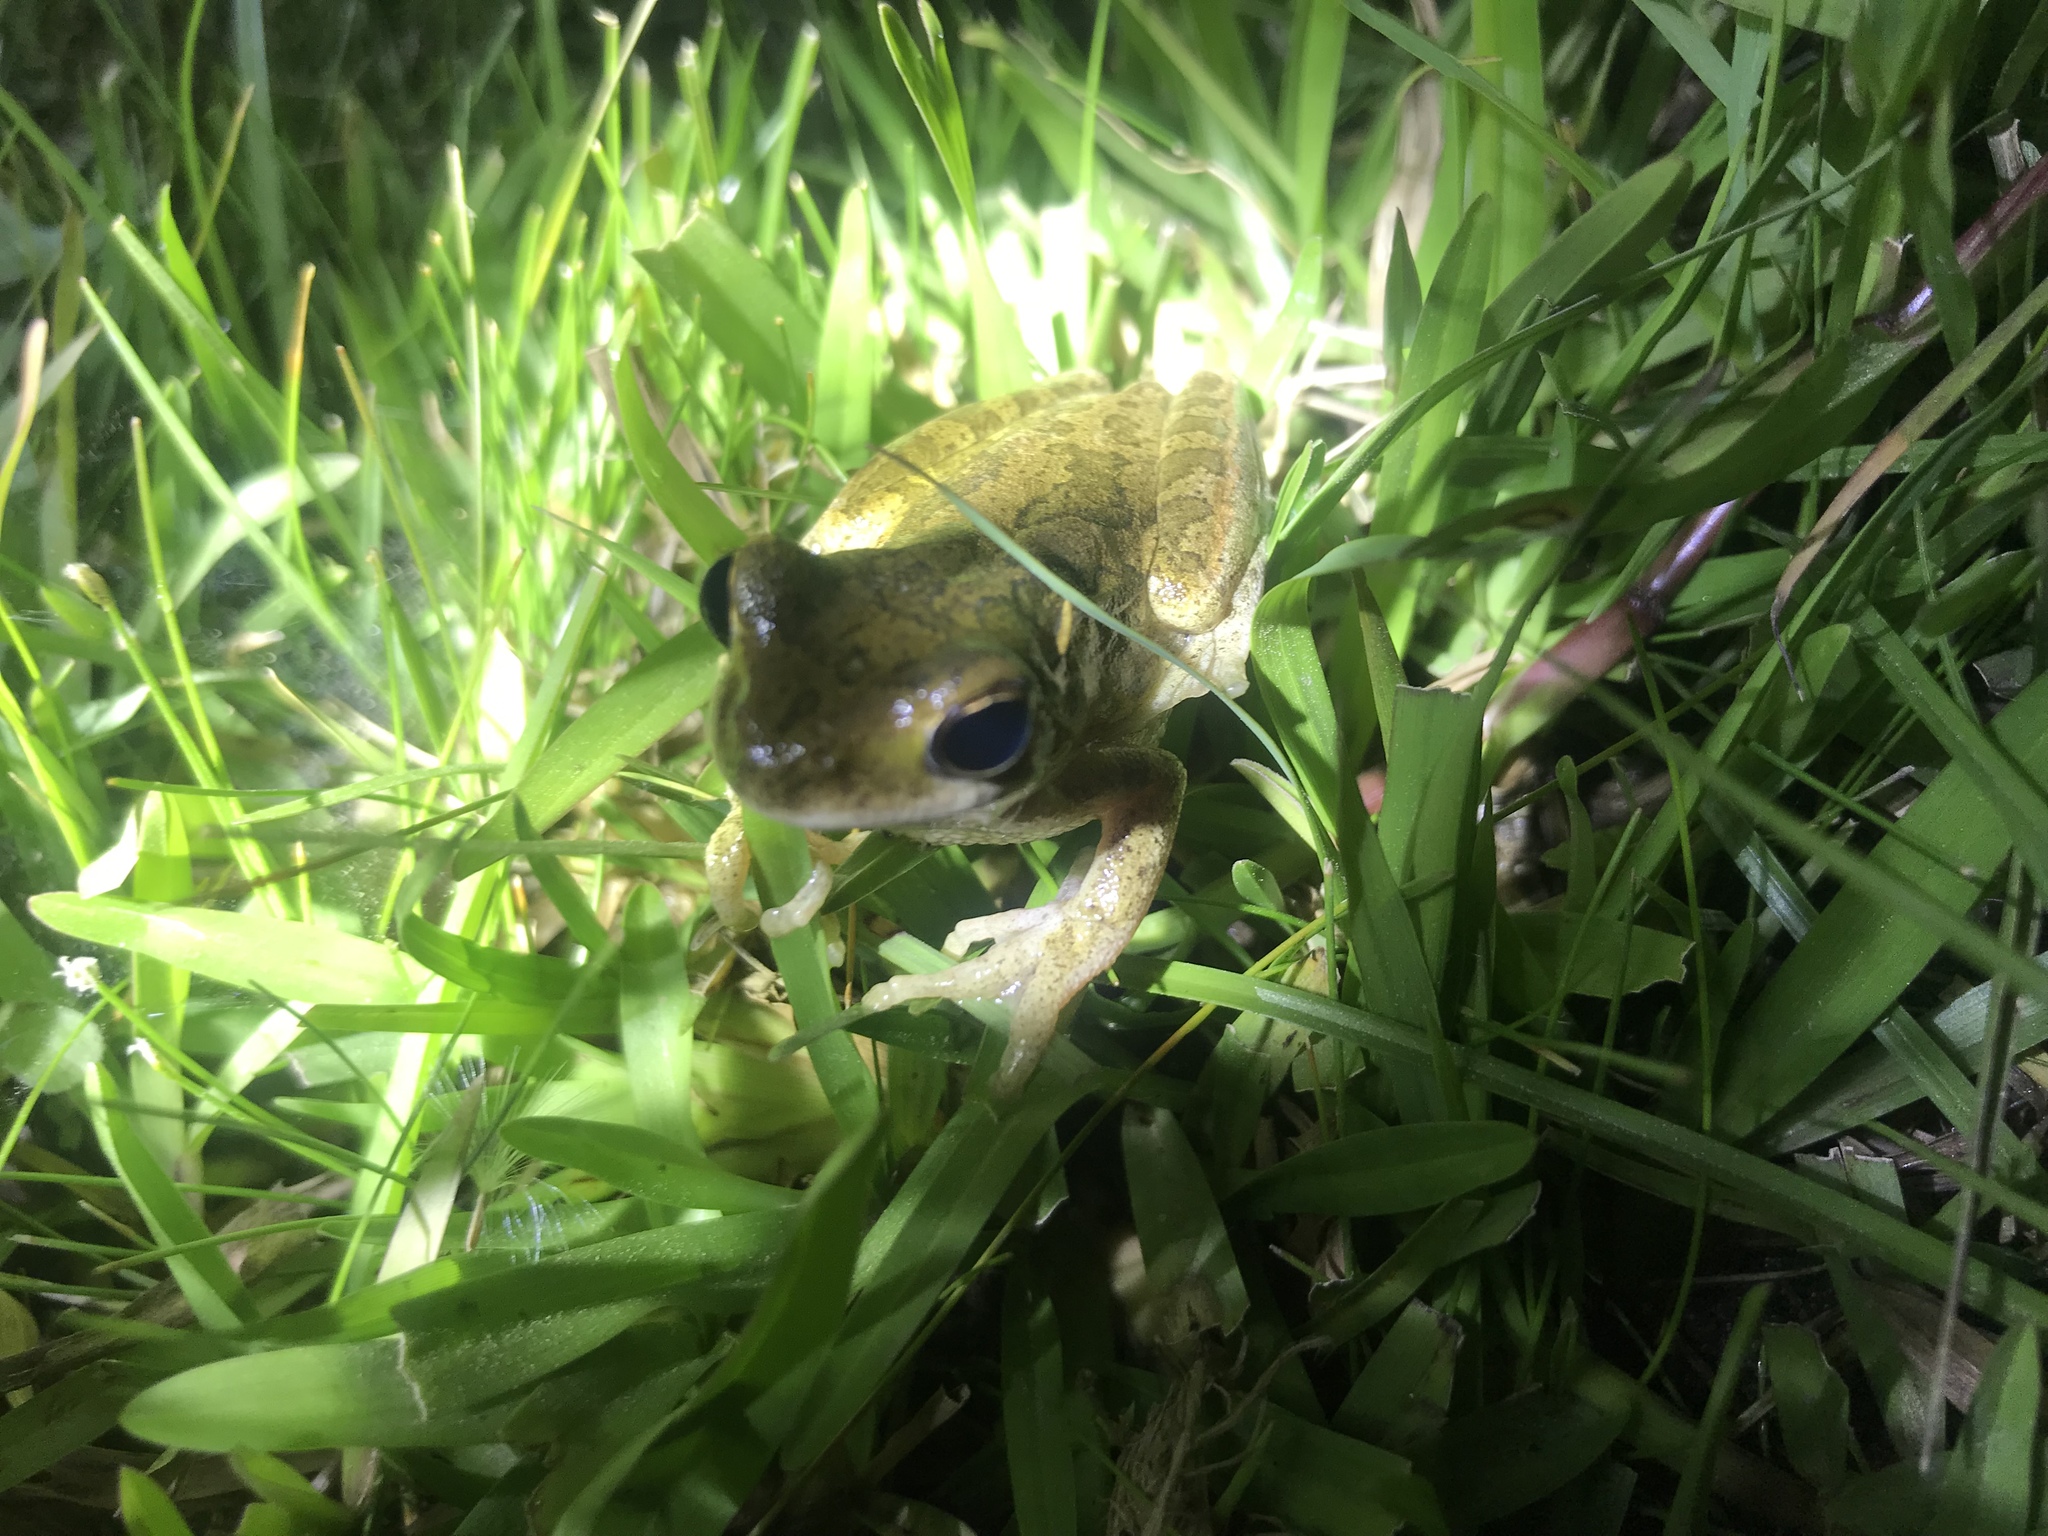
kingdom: Animalia
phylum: Chordata
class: Amphibia
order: Anura
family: Hylidae
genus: Boana
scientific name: Boana pulchella
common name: Montevideo treefrog
